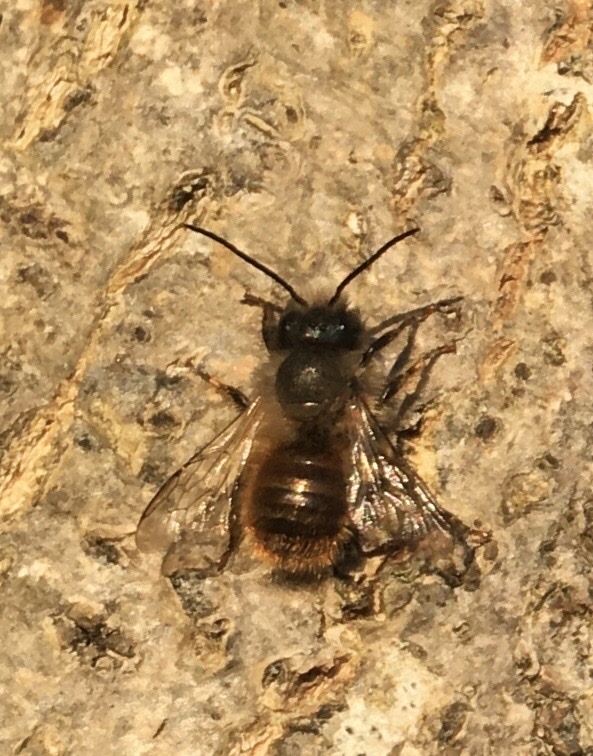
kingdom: Animalia
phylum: Arthropoda
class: Insecta
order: Hymenoptera
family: Megachilidae
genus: Osmia
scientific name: Osmia bicornis
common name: Red mason bee
